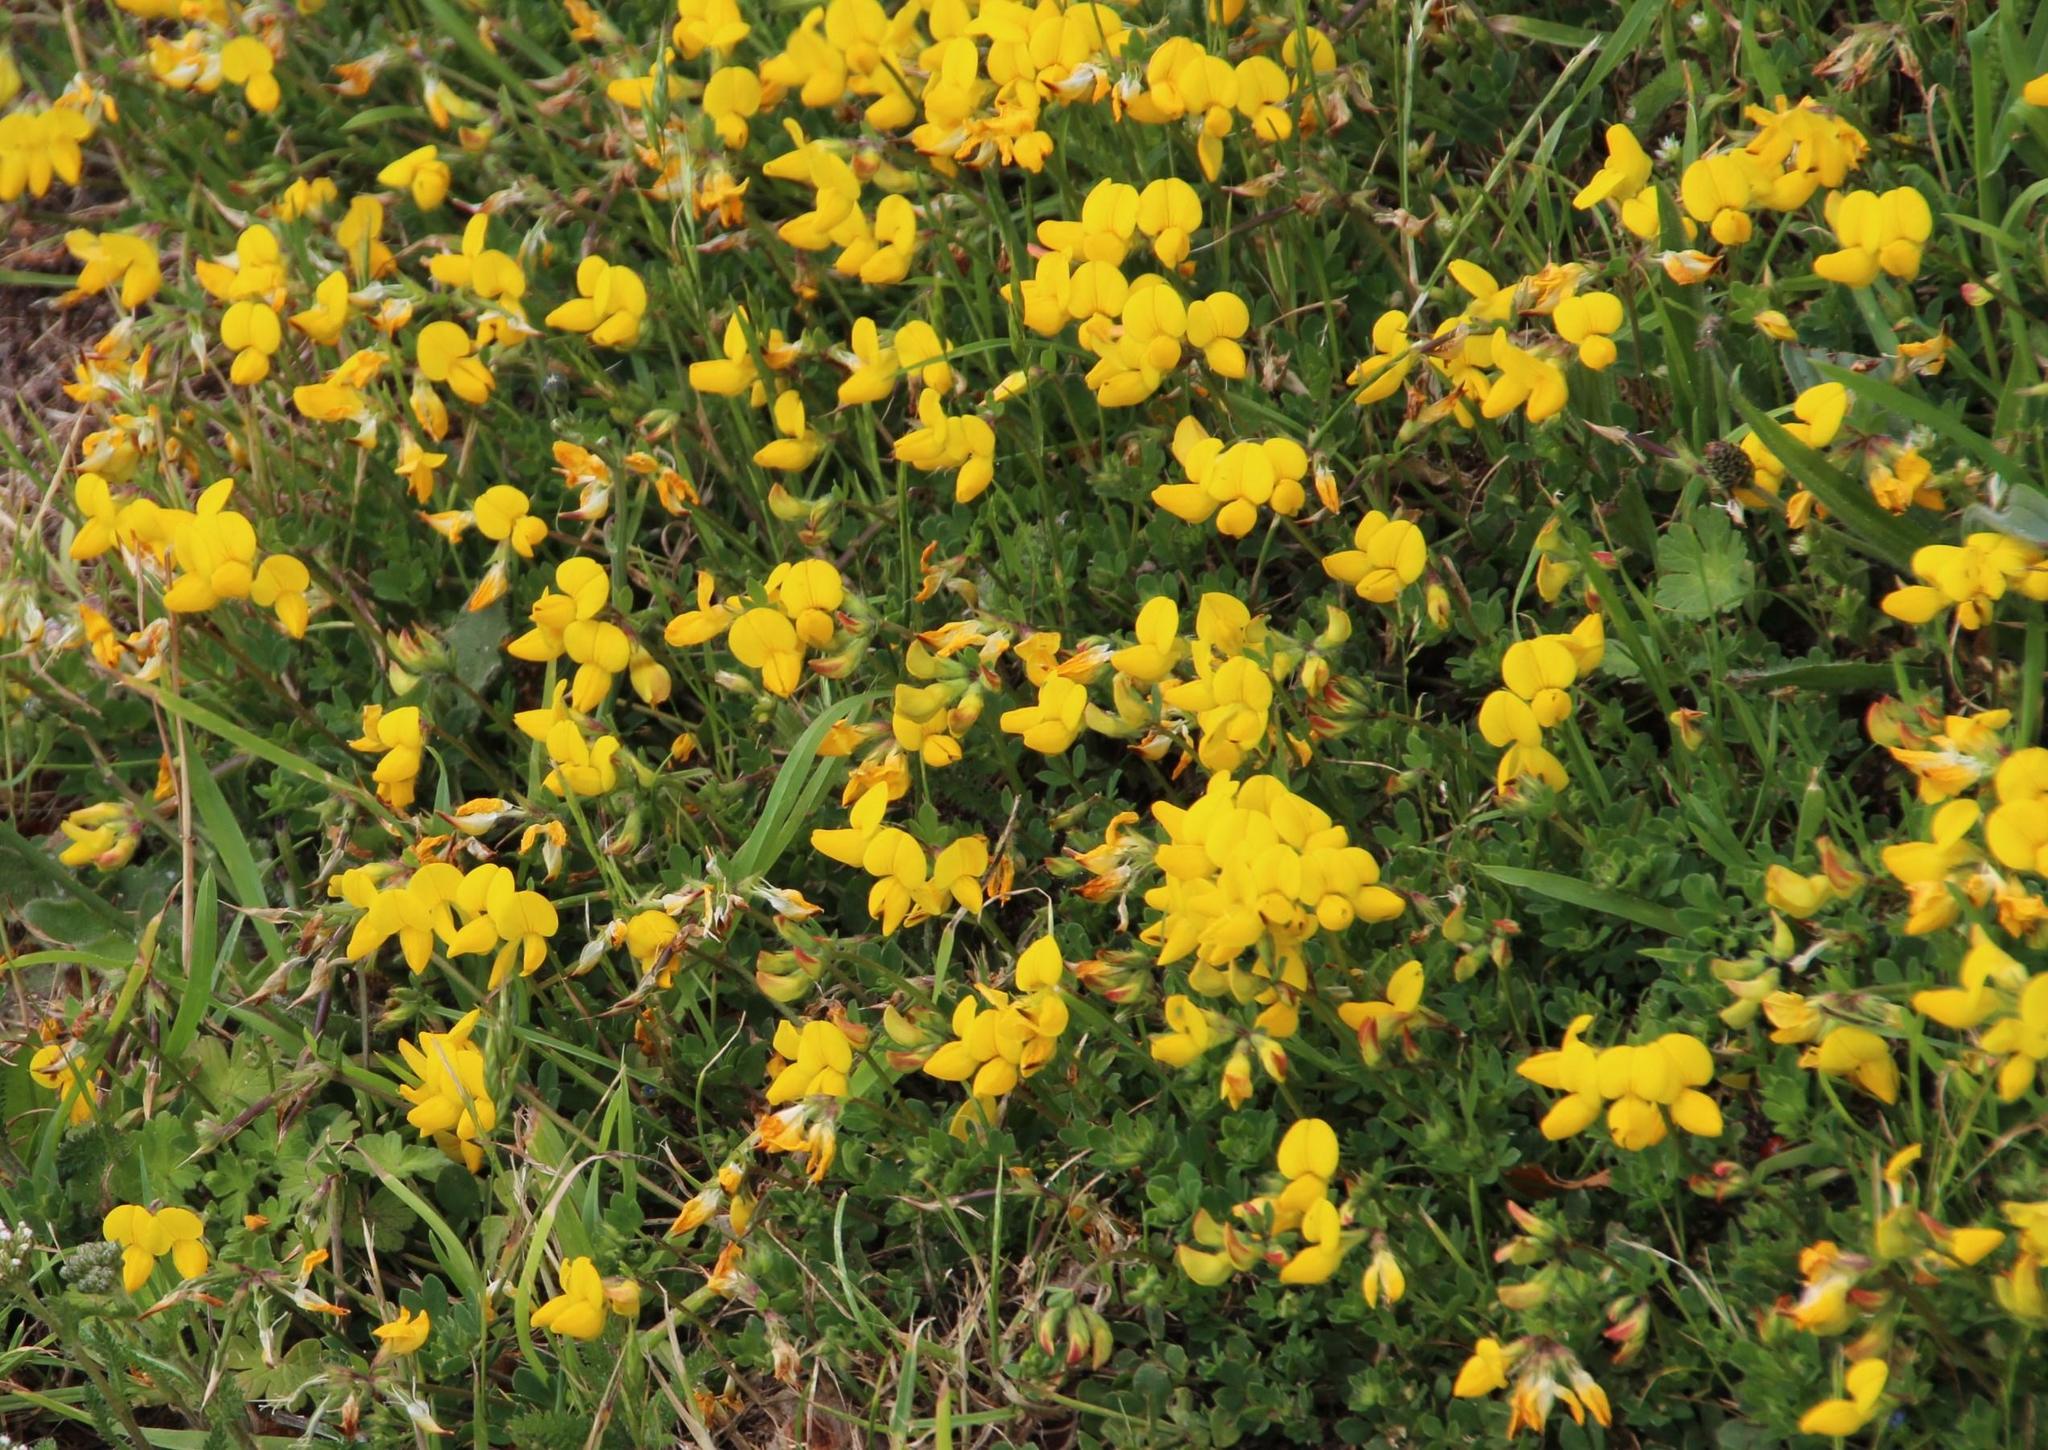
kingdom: Plantae
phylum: Tracheophyta
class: Magnoliopsida
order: Fabales
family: Fabaceae
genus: Lotus
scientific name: Lotus corniculatus
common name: Common bird's-foot-trefoil
